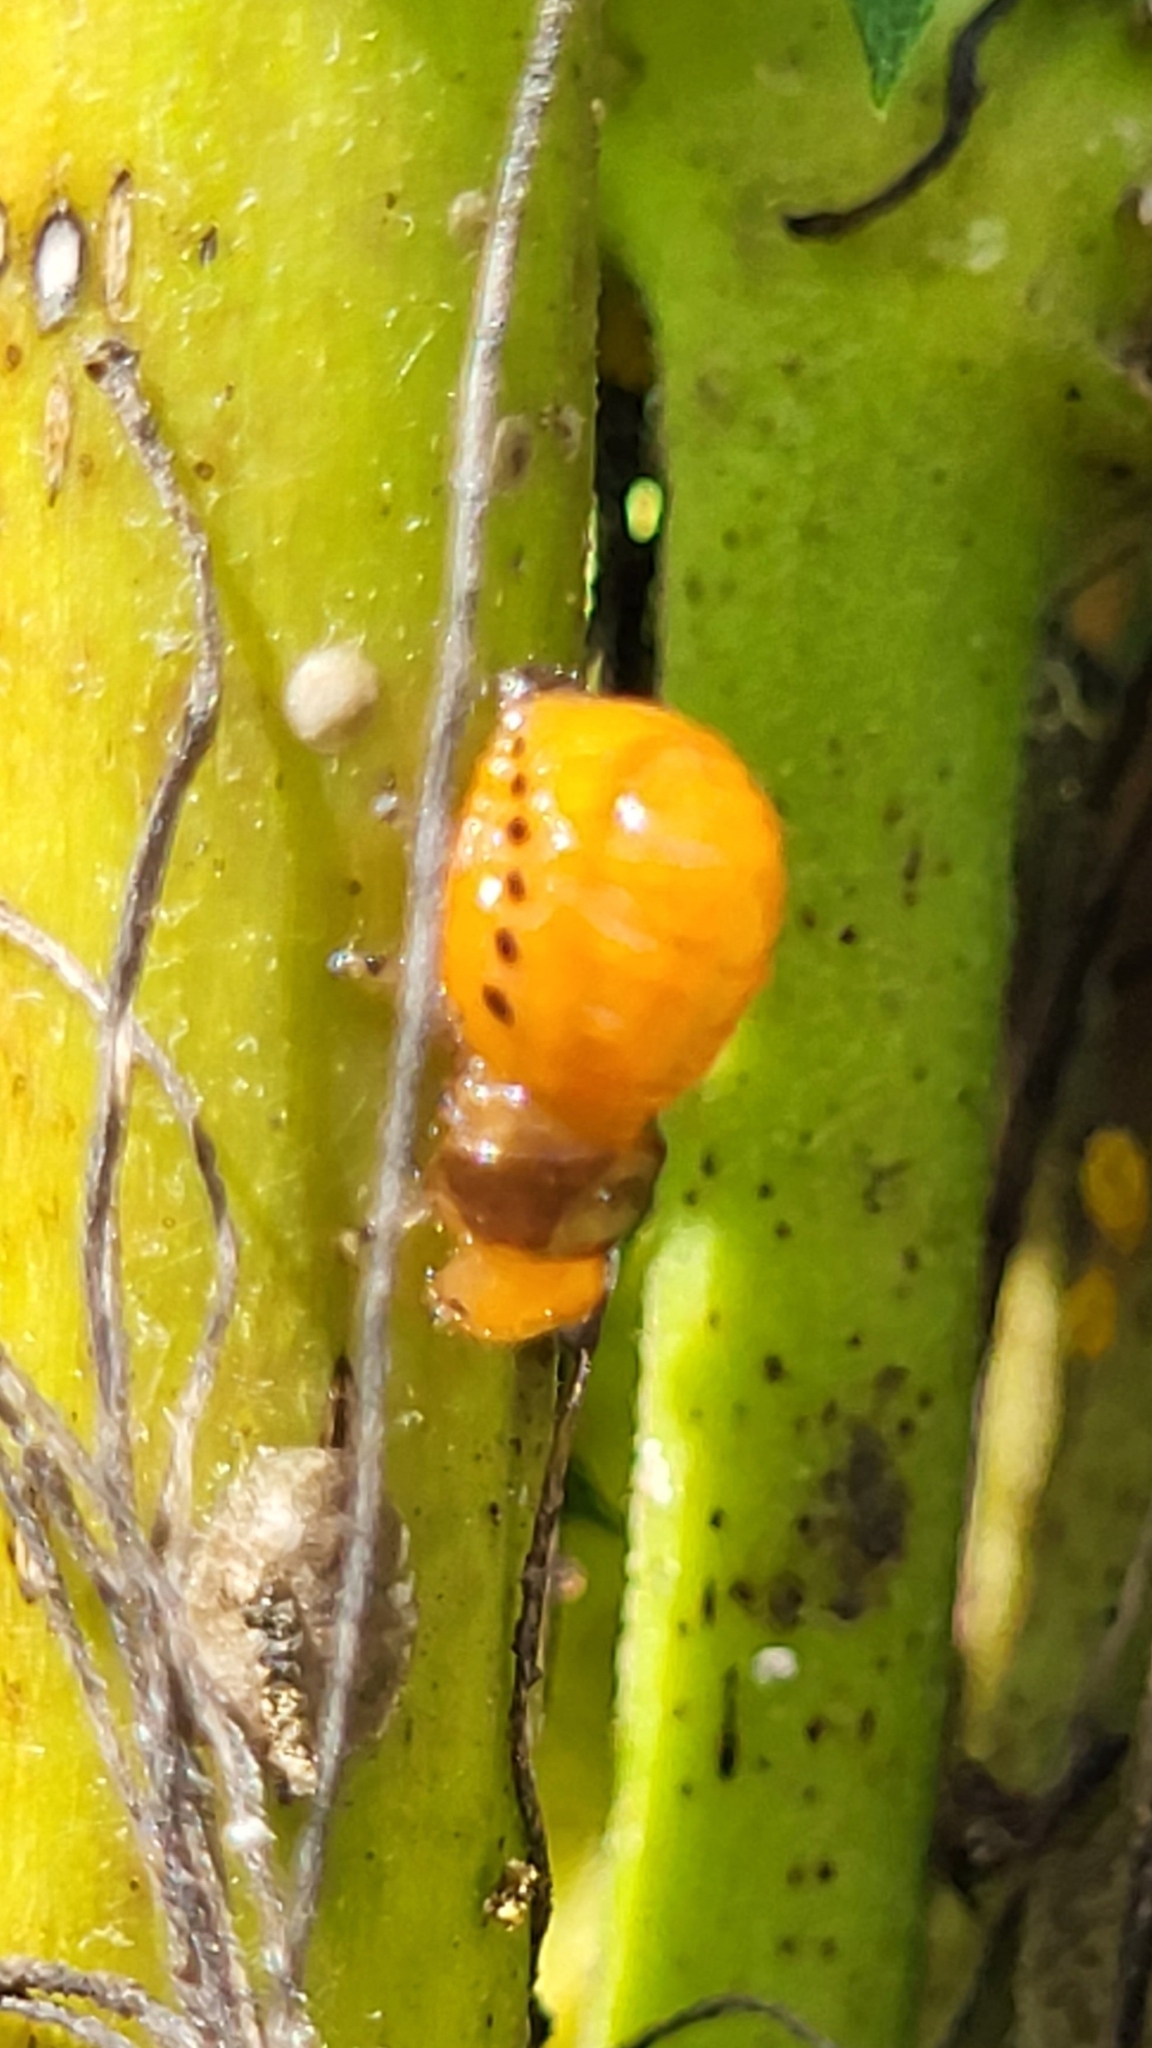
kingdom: Animalia
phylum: Arthropoda
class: Insecta
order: Coleoptera
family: Chrysomelidae
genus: Labidomera
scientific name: Labidomera clivicollis
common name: Swamp milkweed leaf beetle
